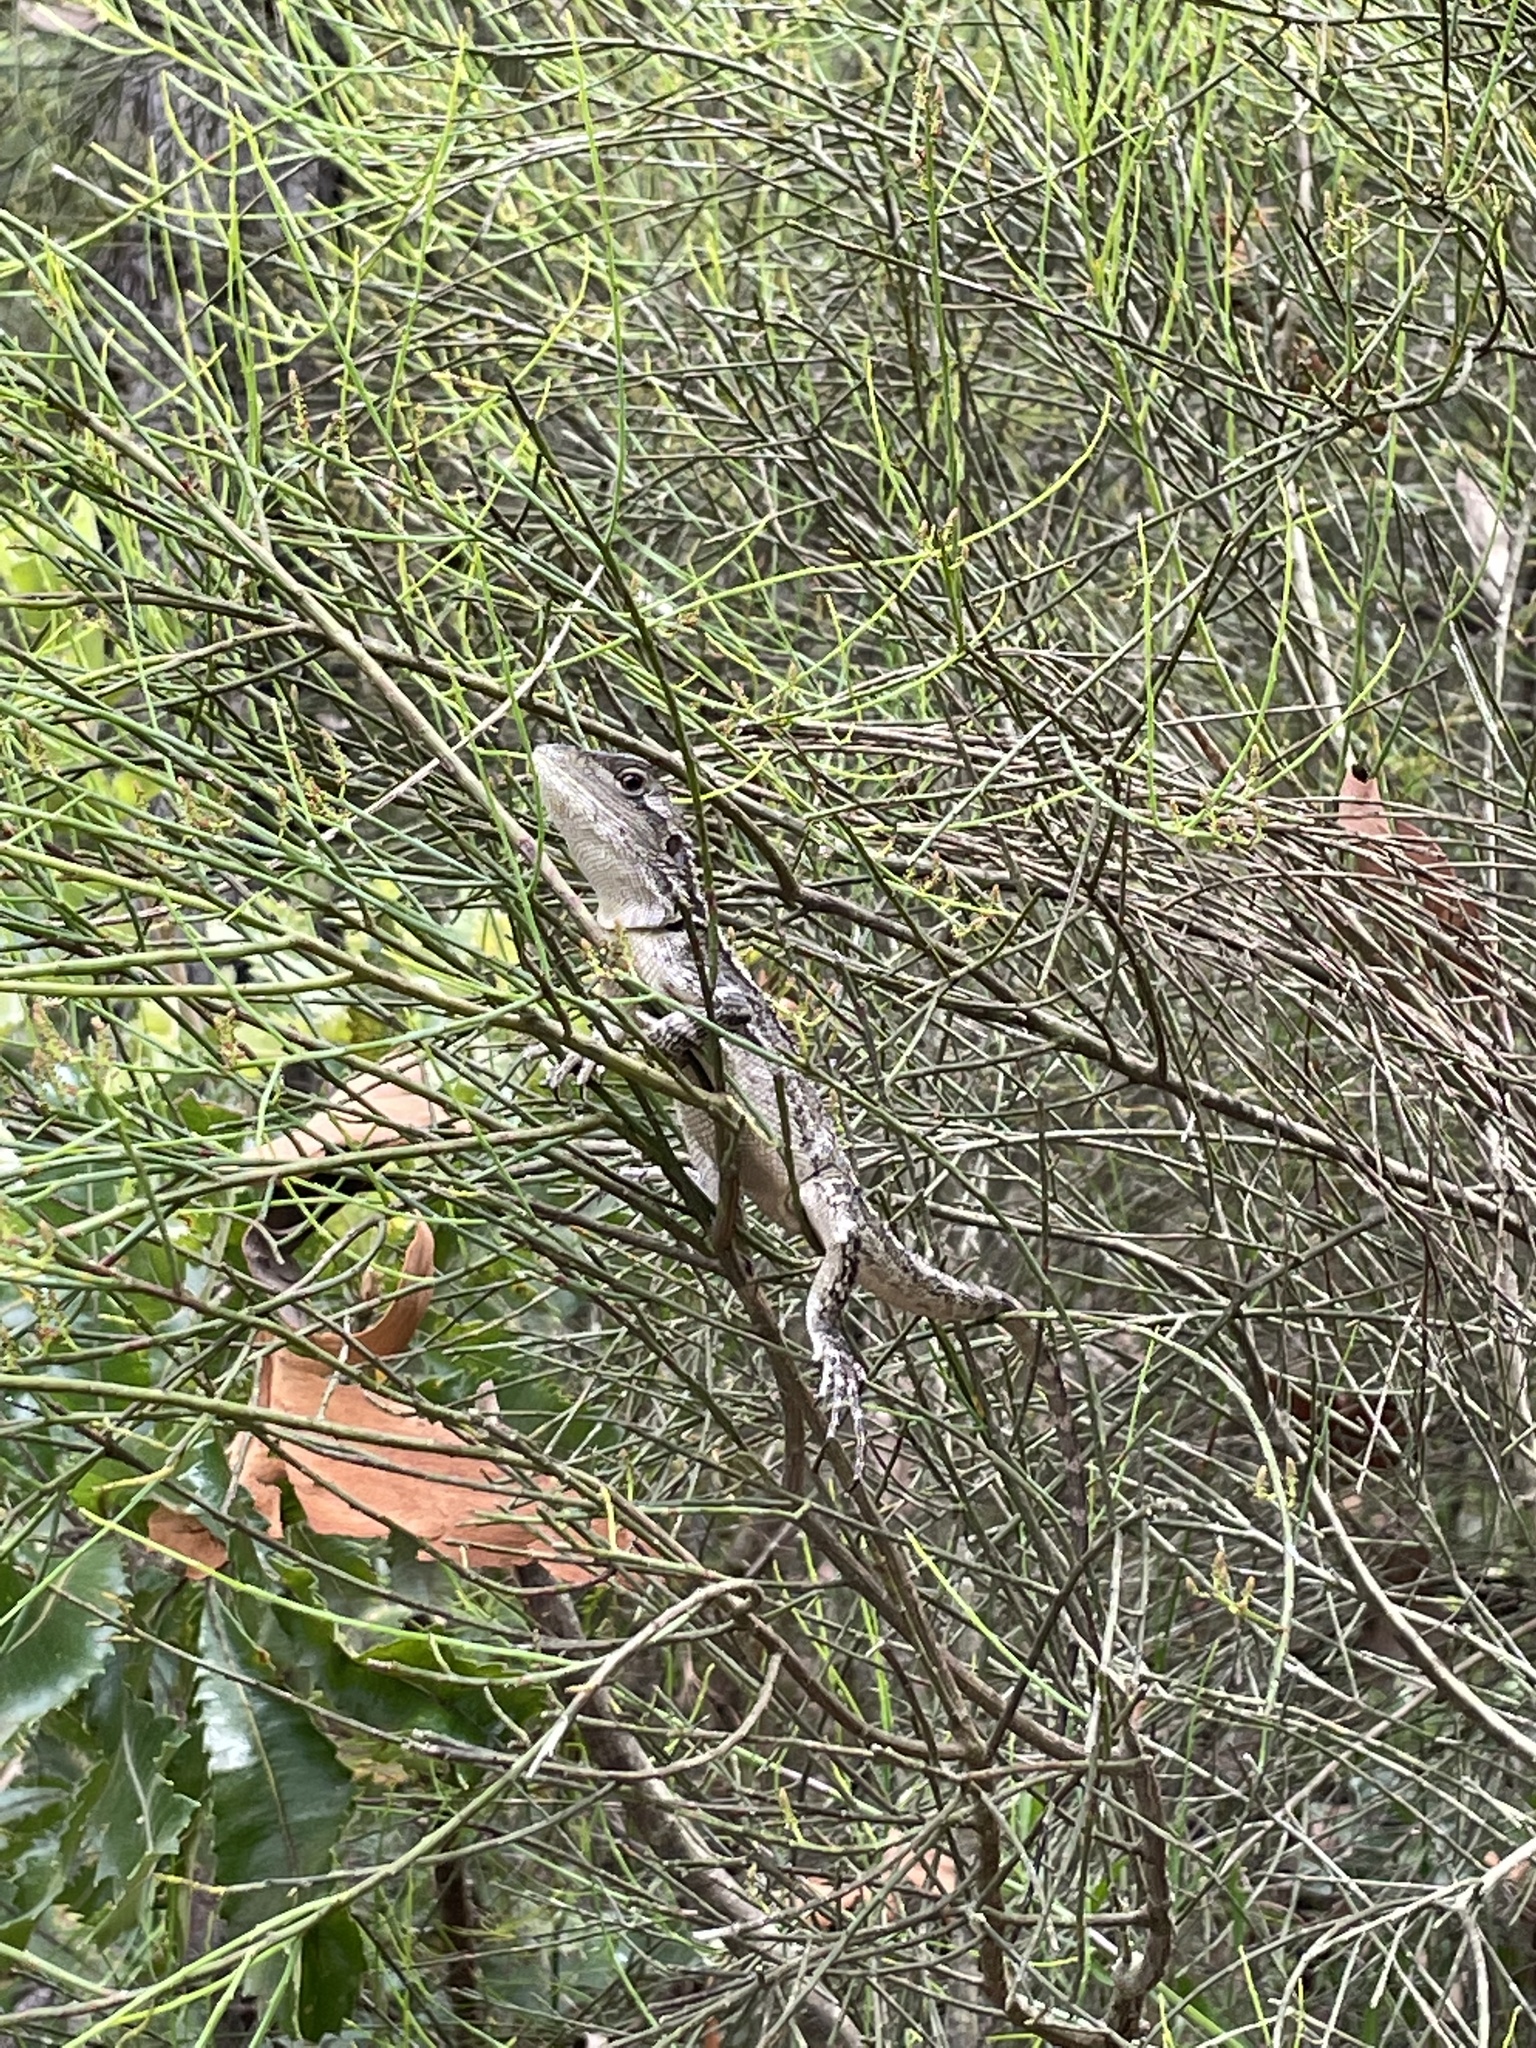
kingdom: Animalia
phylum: Chordata
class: Squamata
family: Agamidae
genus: Amphibolurus
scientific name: Amphibolurus muricatus
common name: Jacky lizard
